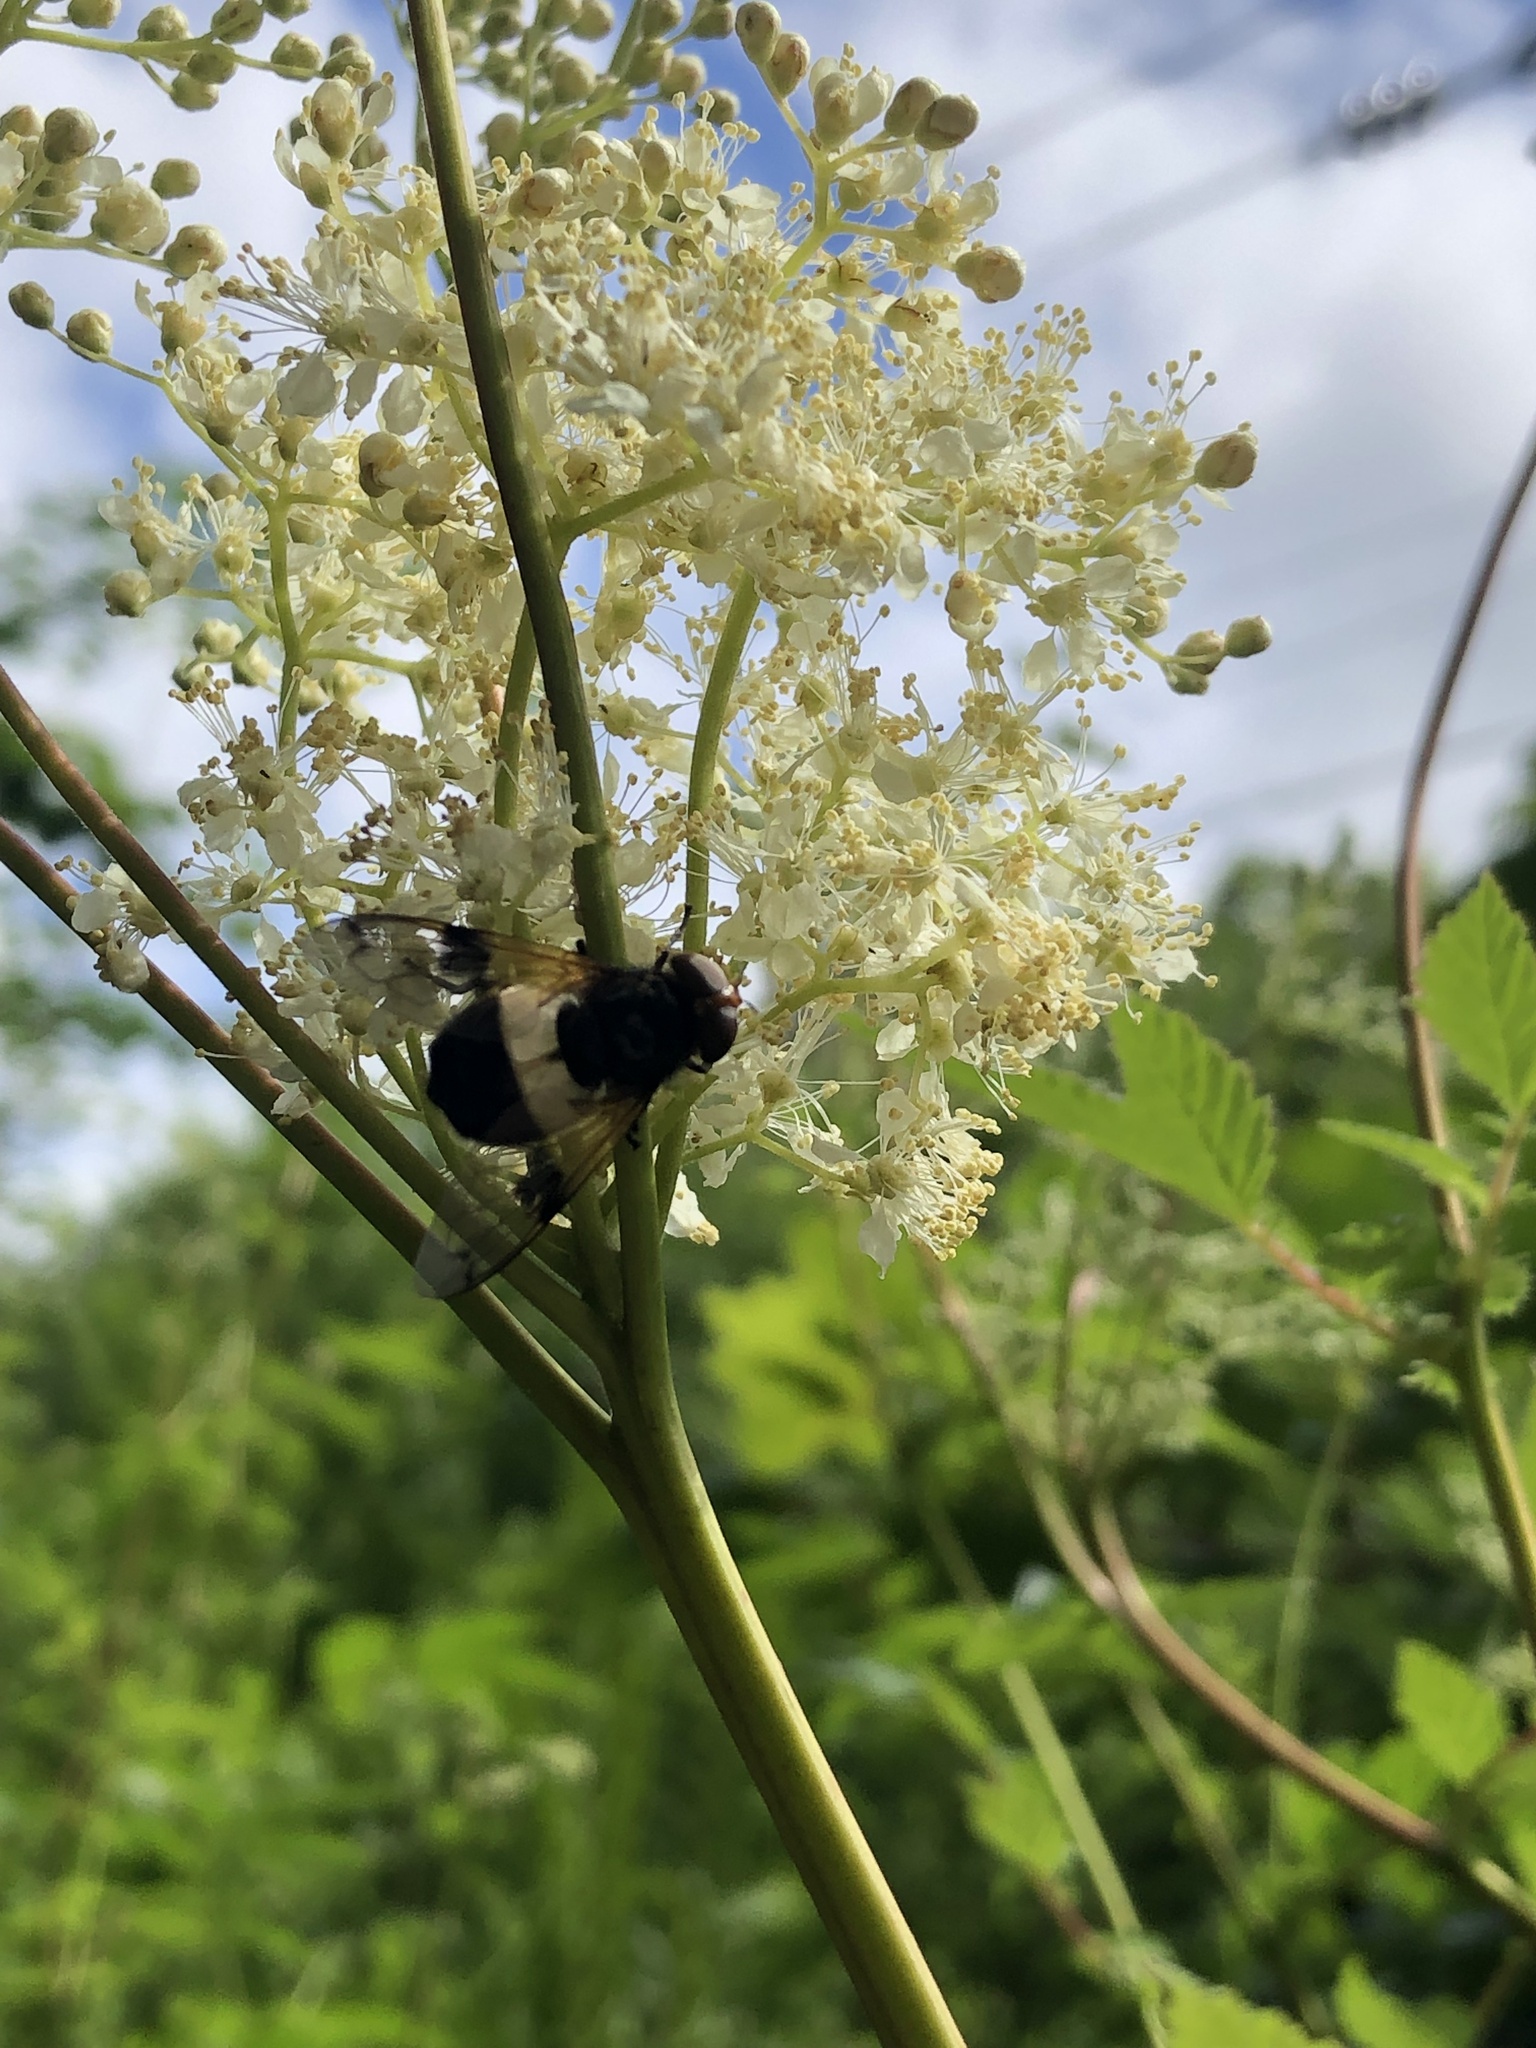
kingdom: Animalia
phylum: Arthropoda
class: Insecta
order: Diptera
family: Syrphidae
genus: Volucella
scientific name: Volucella pellucens
